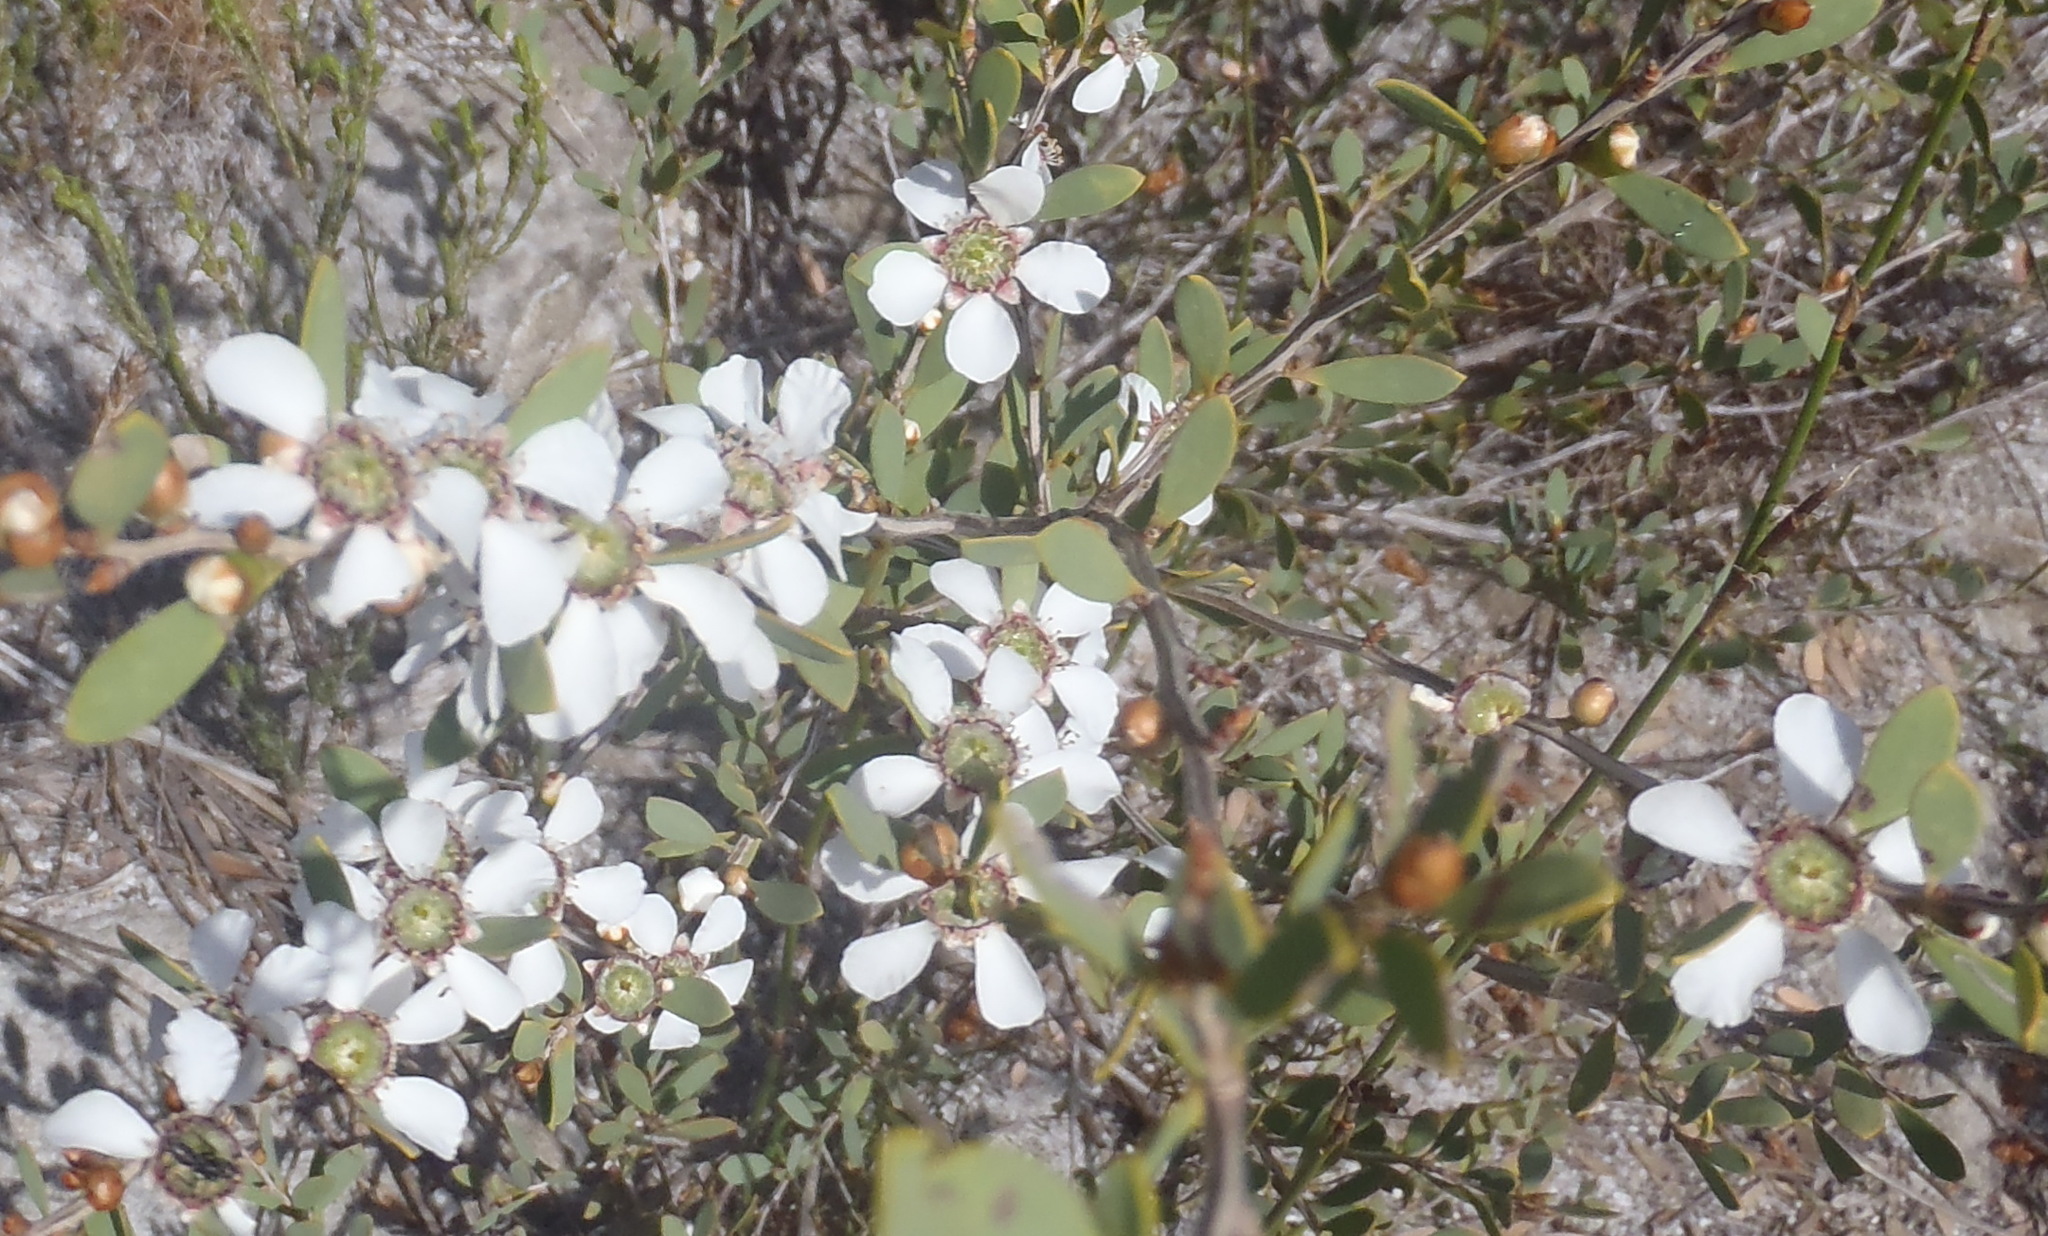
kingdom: Plantae
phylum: Tracheophyta
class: Magnoliopsida
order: Myrtales
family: Myrtaceae
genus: Leptospermum
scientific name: Leptospermum laevigatum
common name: Australian teatree
